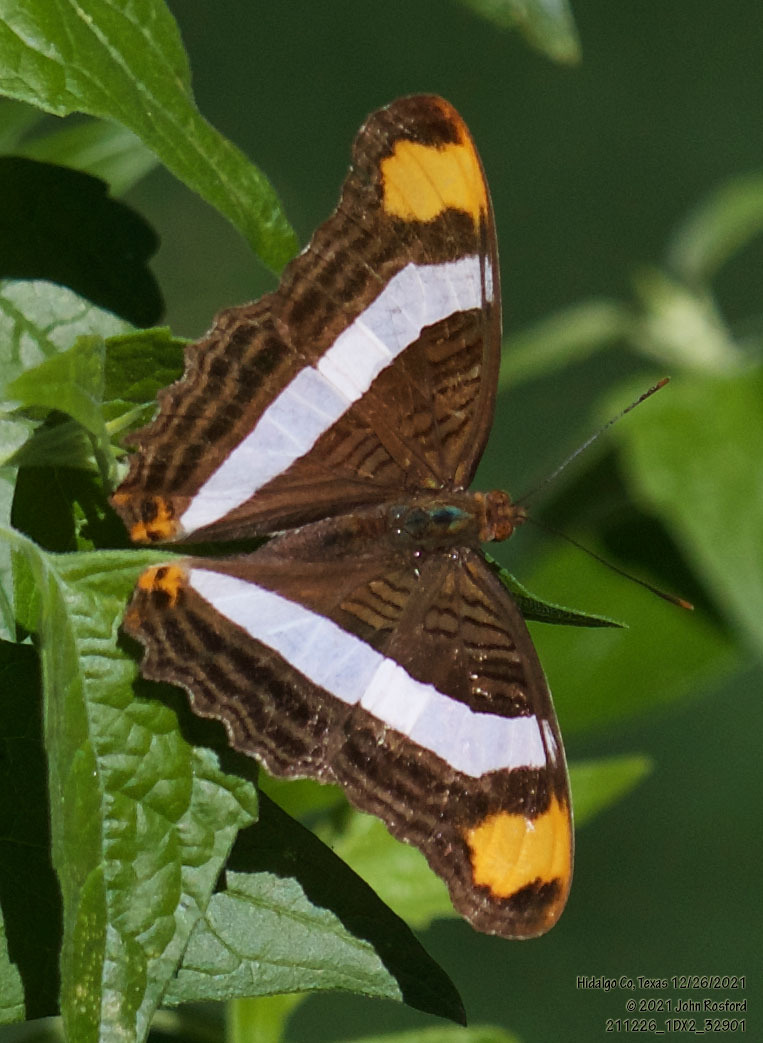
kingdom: Animalia
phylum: Arthropoda
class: Insecta
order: Lepidoptera
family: Nymphalidae
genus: Limenitis
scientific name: Limenitis fessonia
